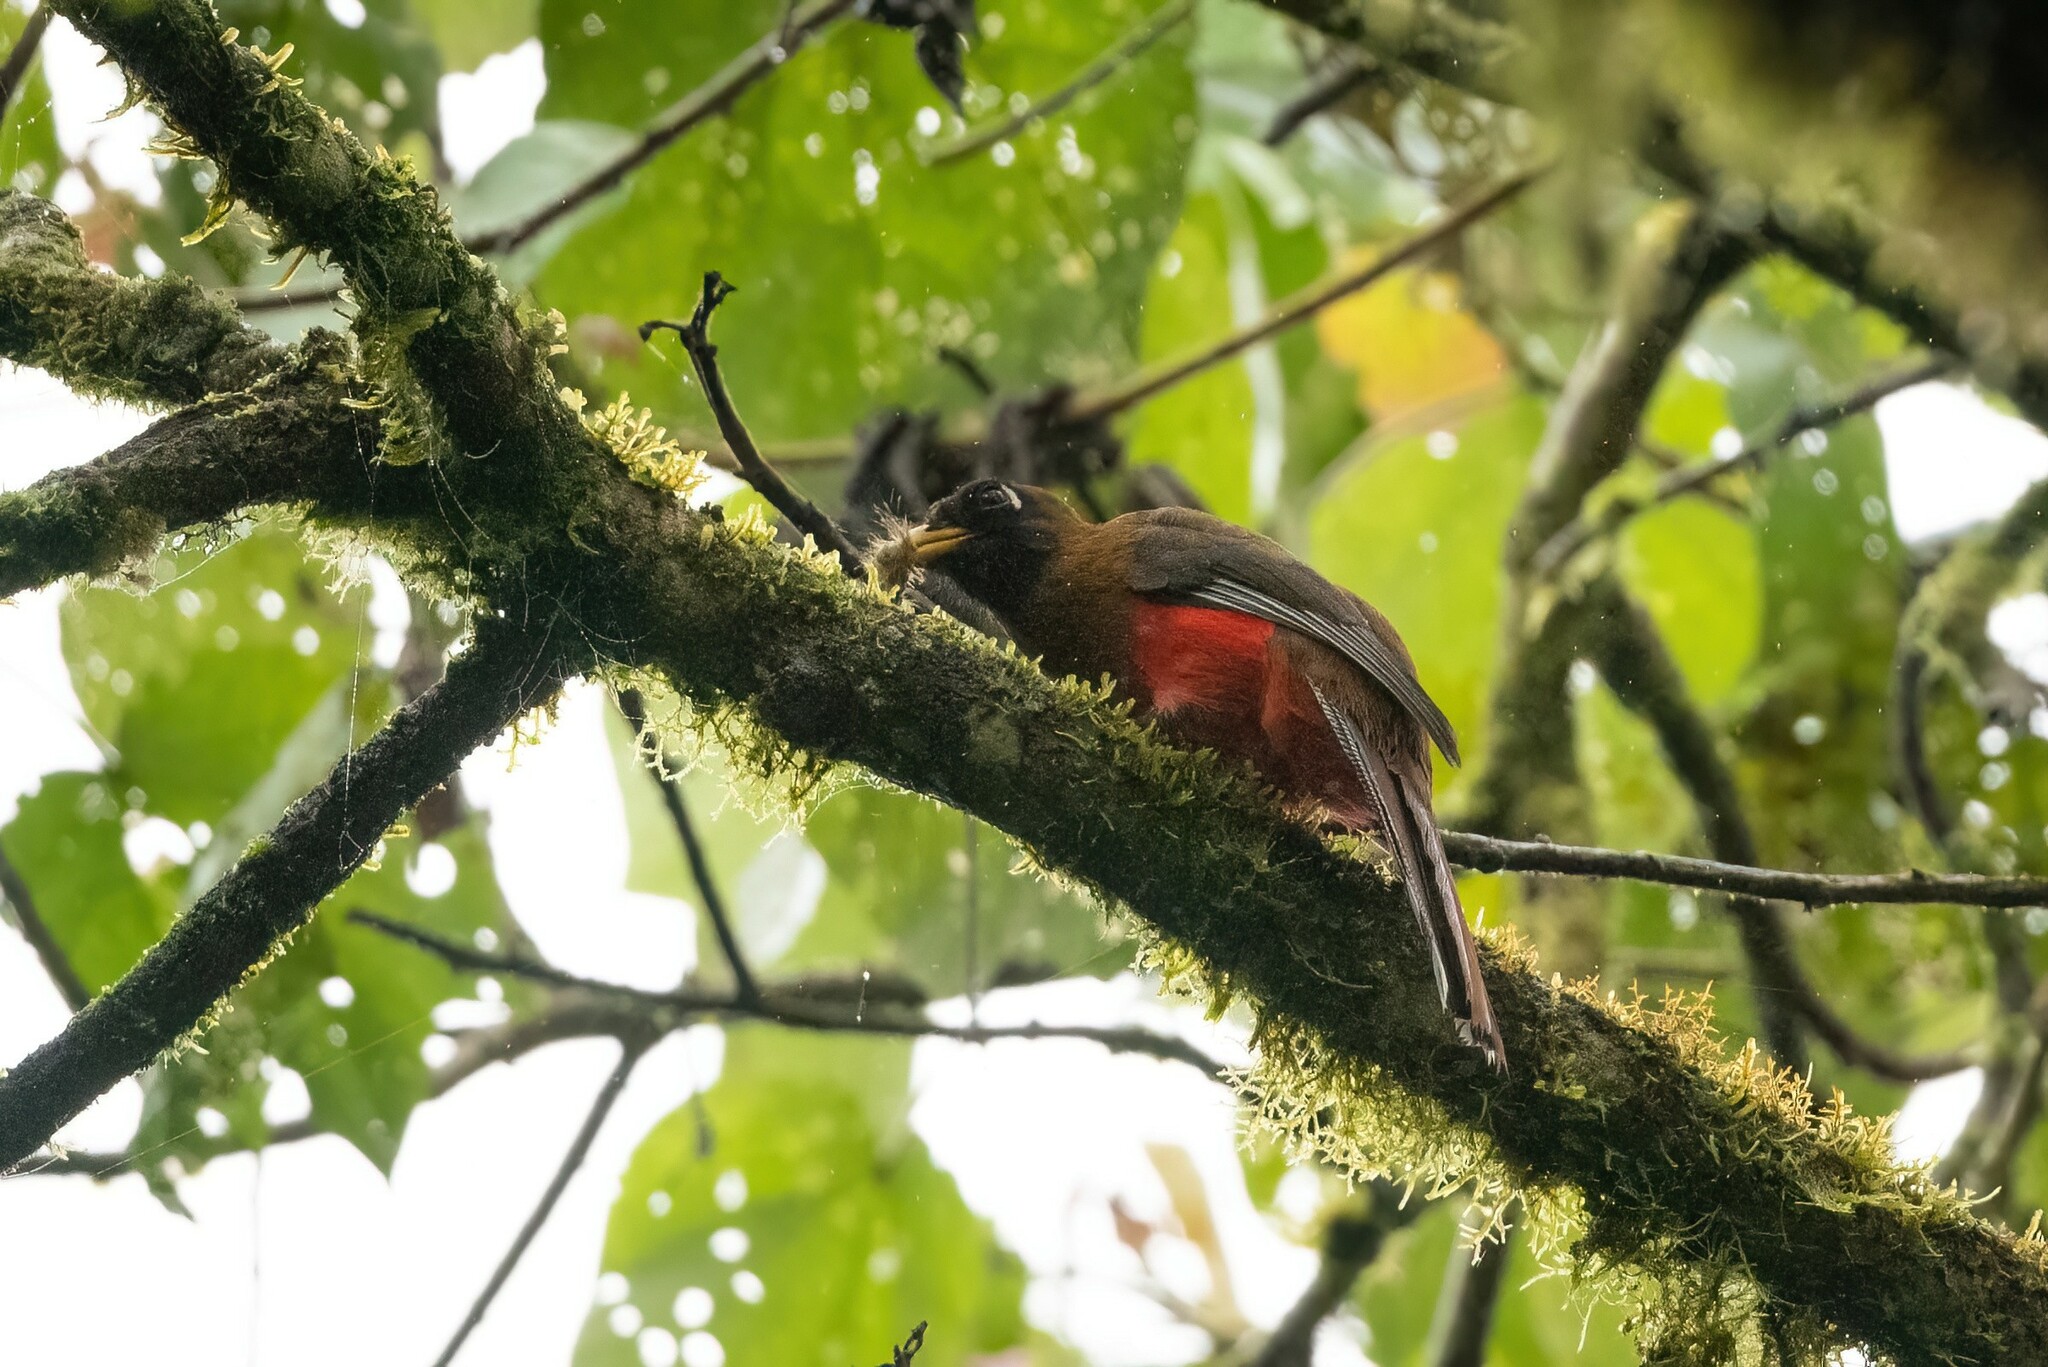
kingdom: Animalia
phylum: Chordata
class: Aves
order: Trogoniformes
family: Trogonidae
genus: Trogon
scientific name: Trogon personatus
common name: Masked trogon
